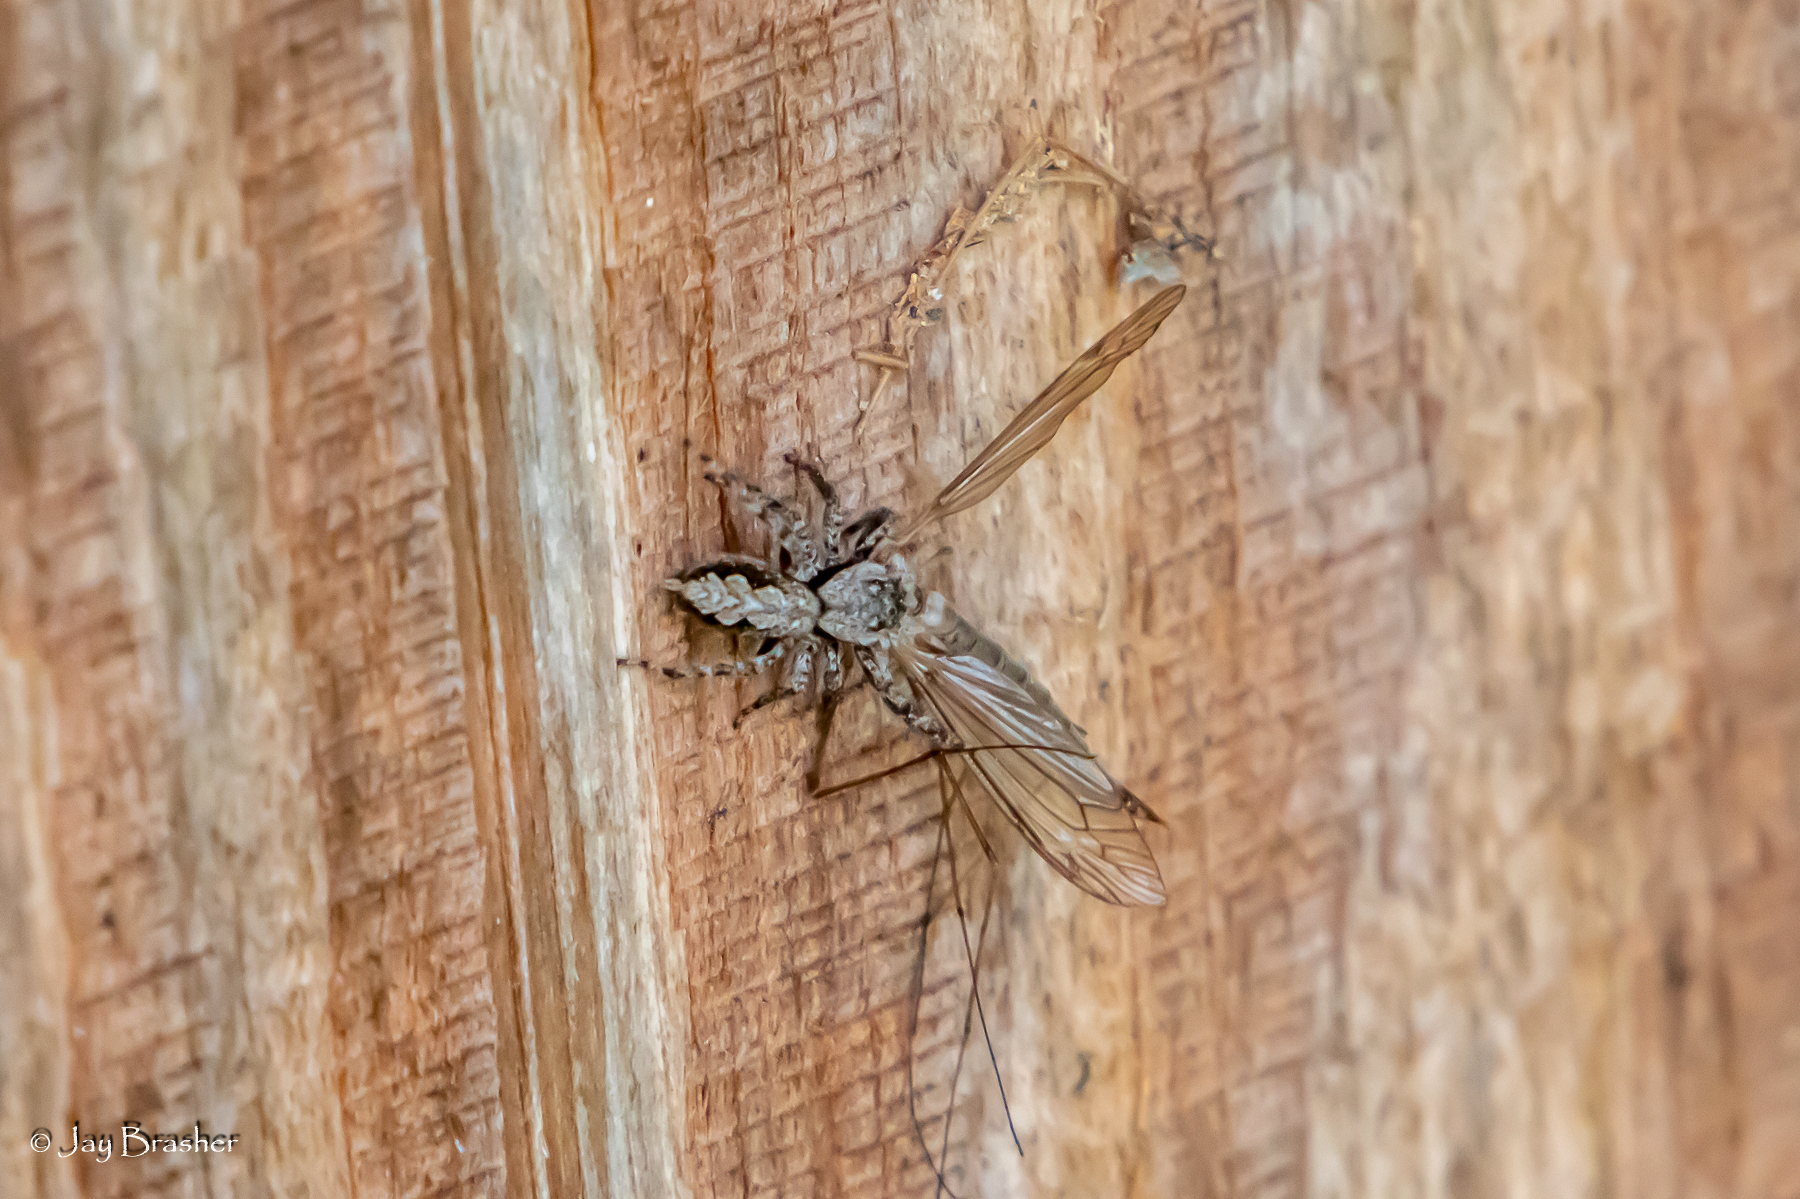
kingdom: Animalia
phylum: Arthropoda
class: Arachnida
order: Araneae
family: Salticidae
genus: Platycryptus
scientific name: Platycryptus undatus
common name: Tan jumping spider
